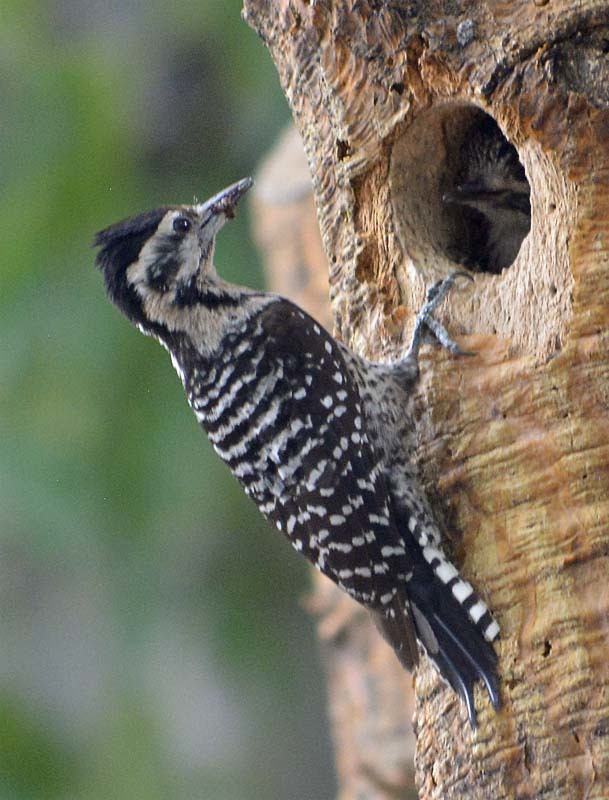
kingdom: Animalia
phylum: Chordata
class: Aves
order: Piciformes
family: Picidae
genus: Dryobates
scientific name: Dryobates scalaris
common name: Ladder-backed woodpecker
